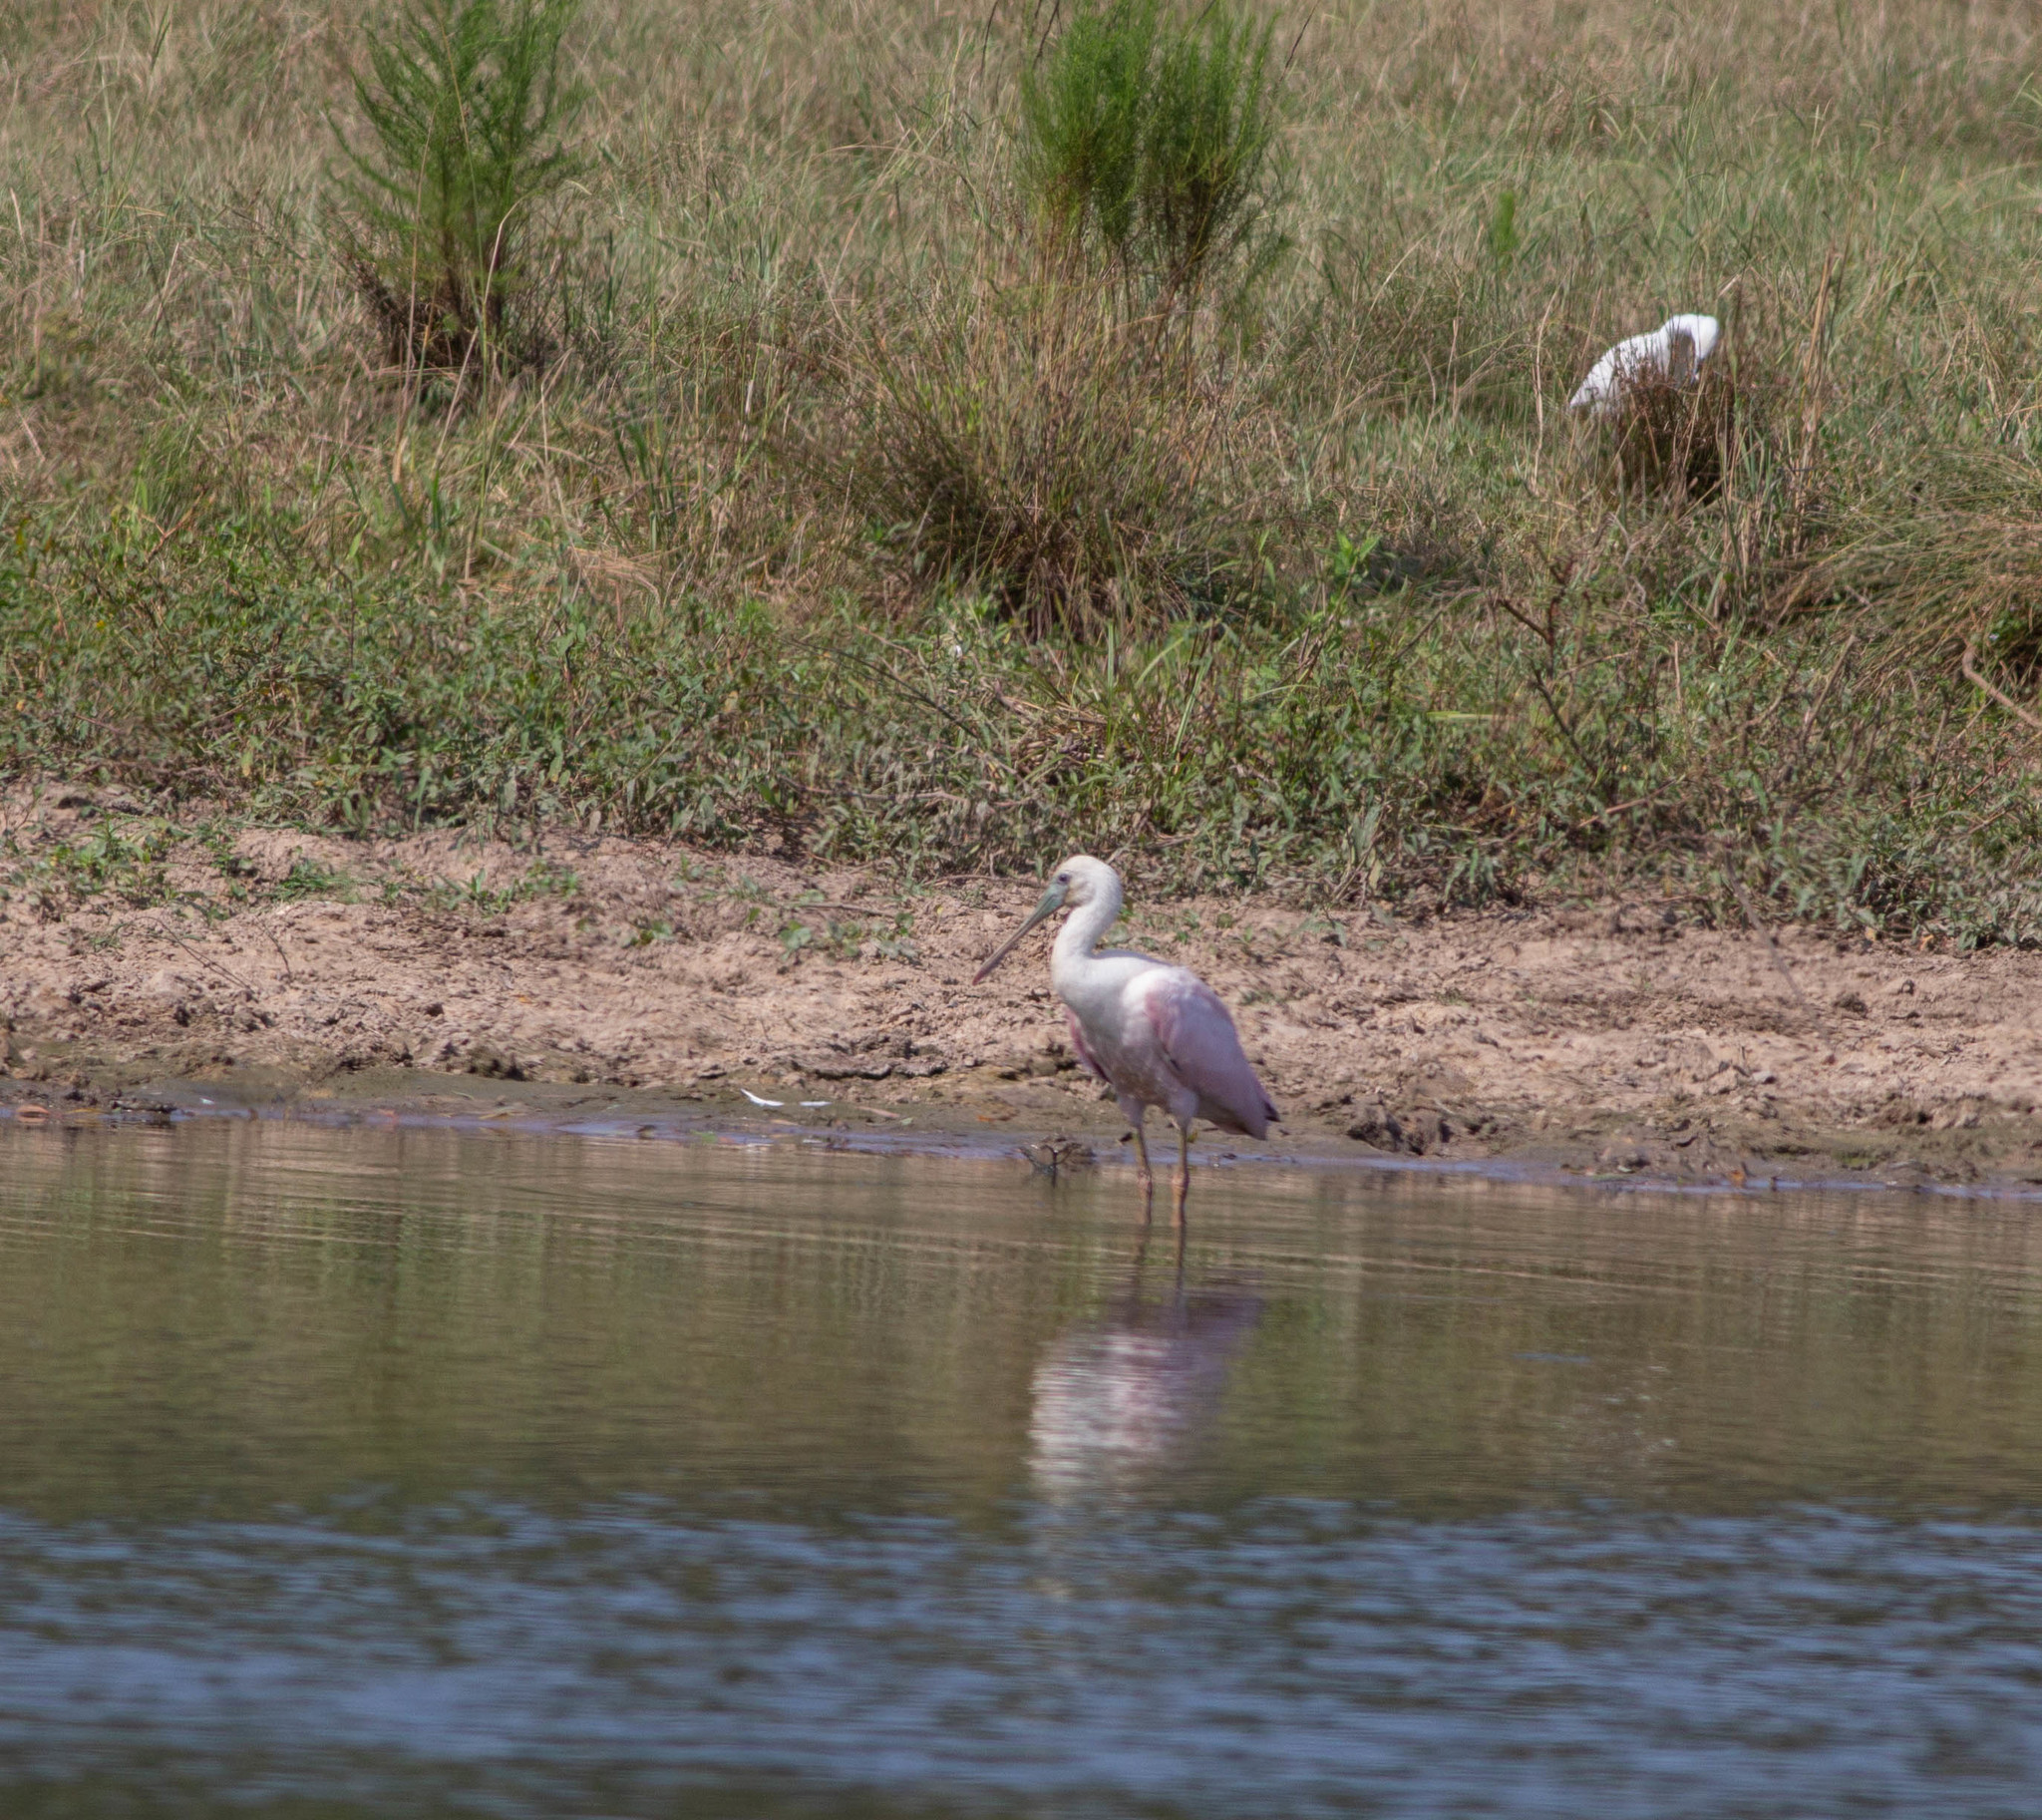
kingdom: Animalia
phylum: Chordata
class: Aves
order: Pelecaniformes
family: Threskiornithidae
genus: Platalea
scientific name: Platalea ajaja
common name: Roseate spoonbill
